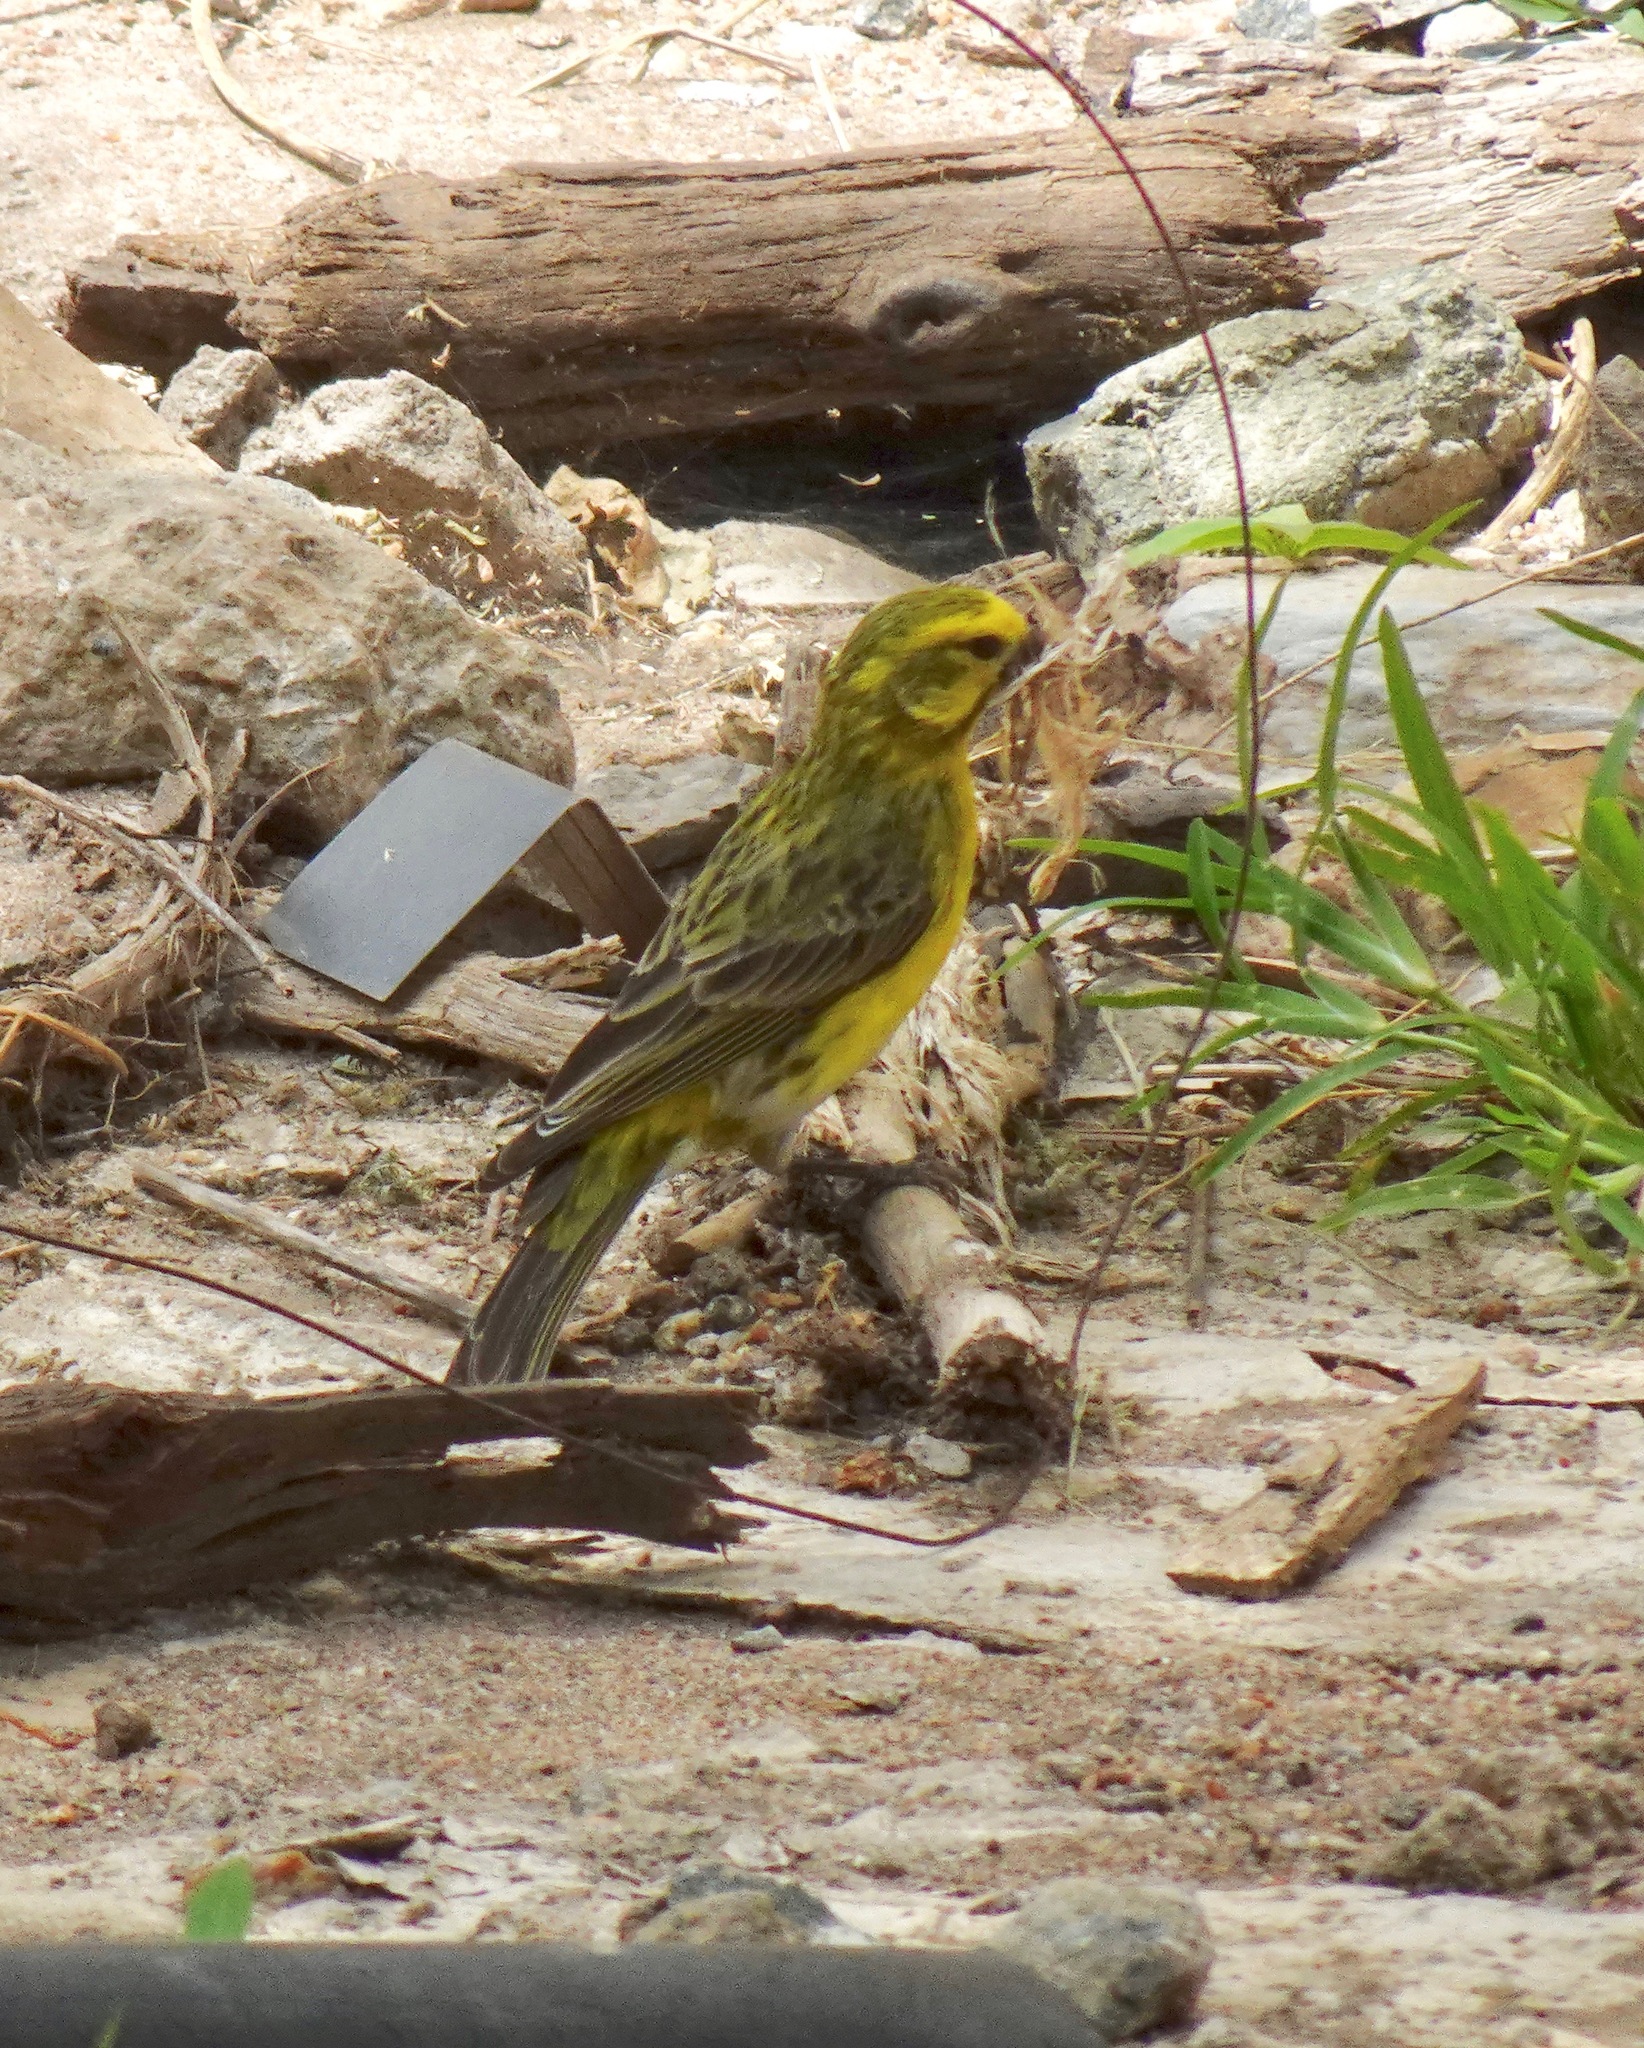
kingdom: Animalia
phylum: Chordata
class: Aves
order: Passeriformes
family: Fringillidae
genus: Crithagra
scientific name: Crithagra dorsostriata
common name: White-bellied canary
